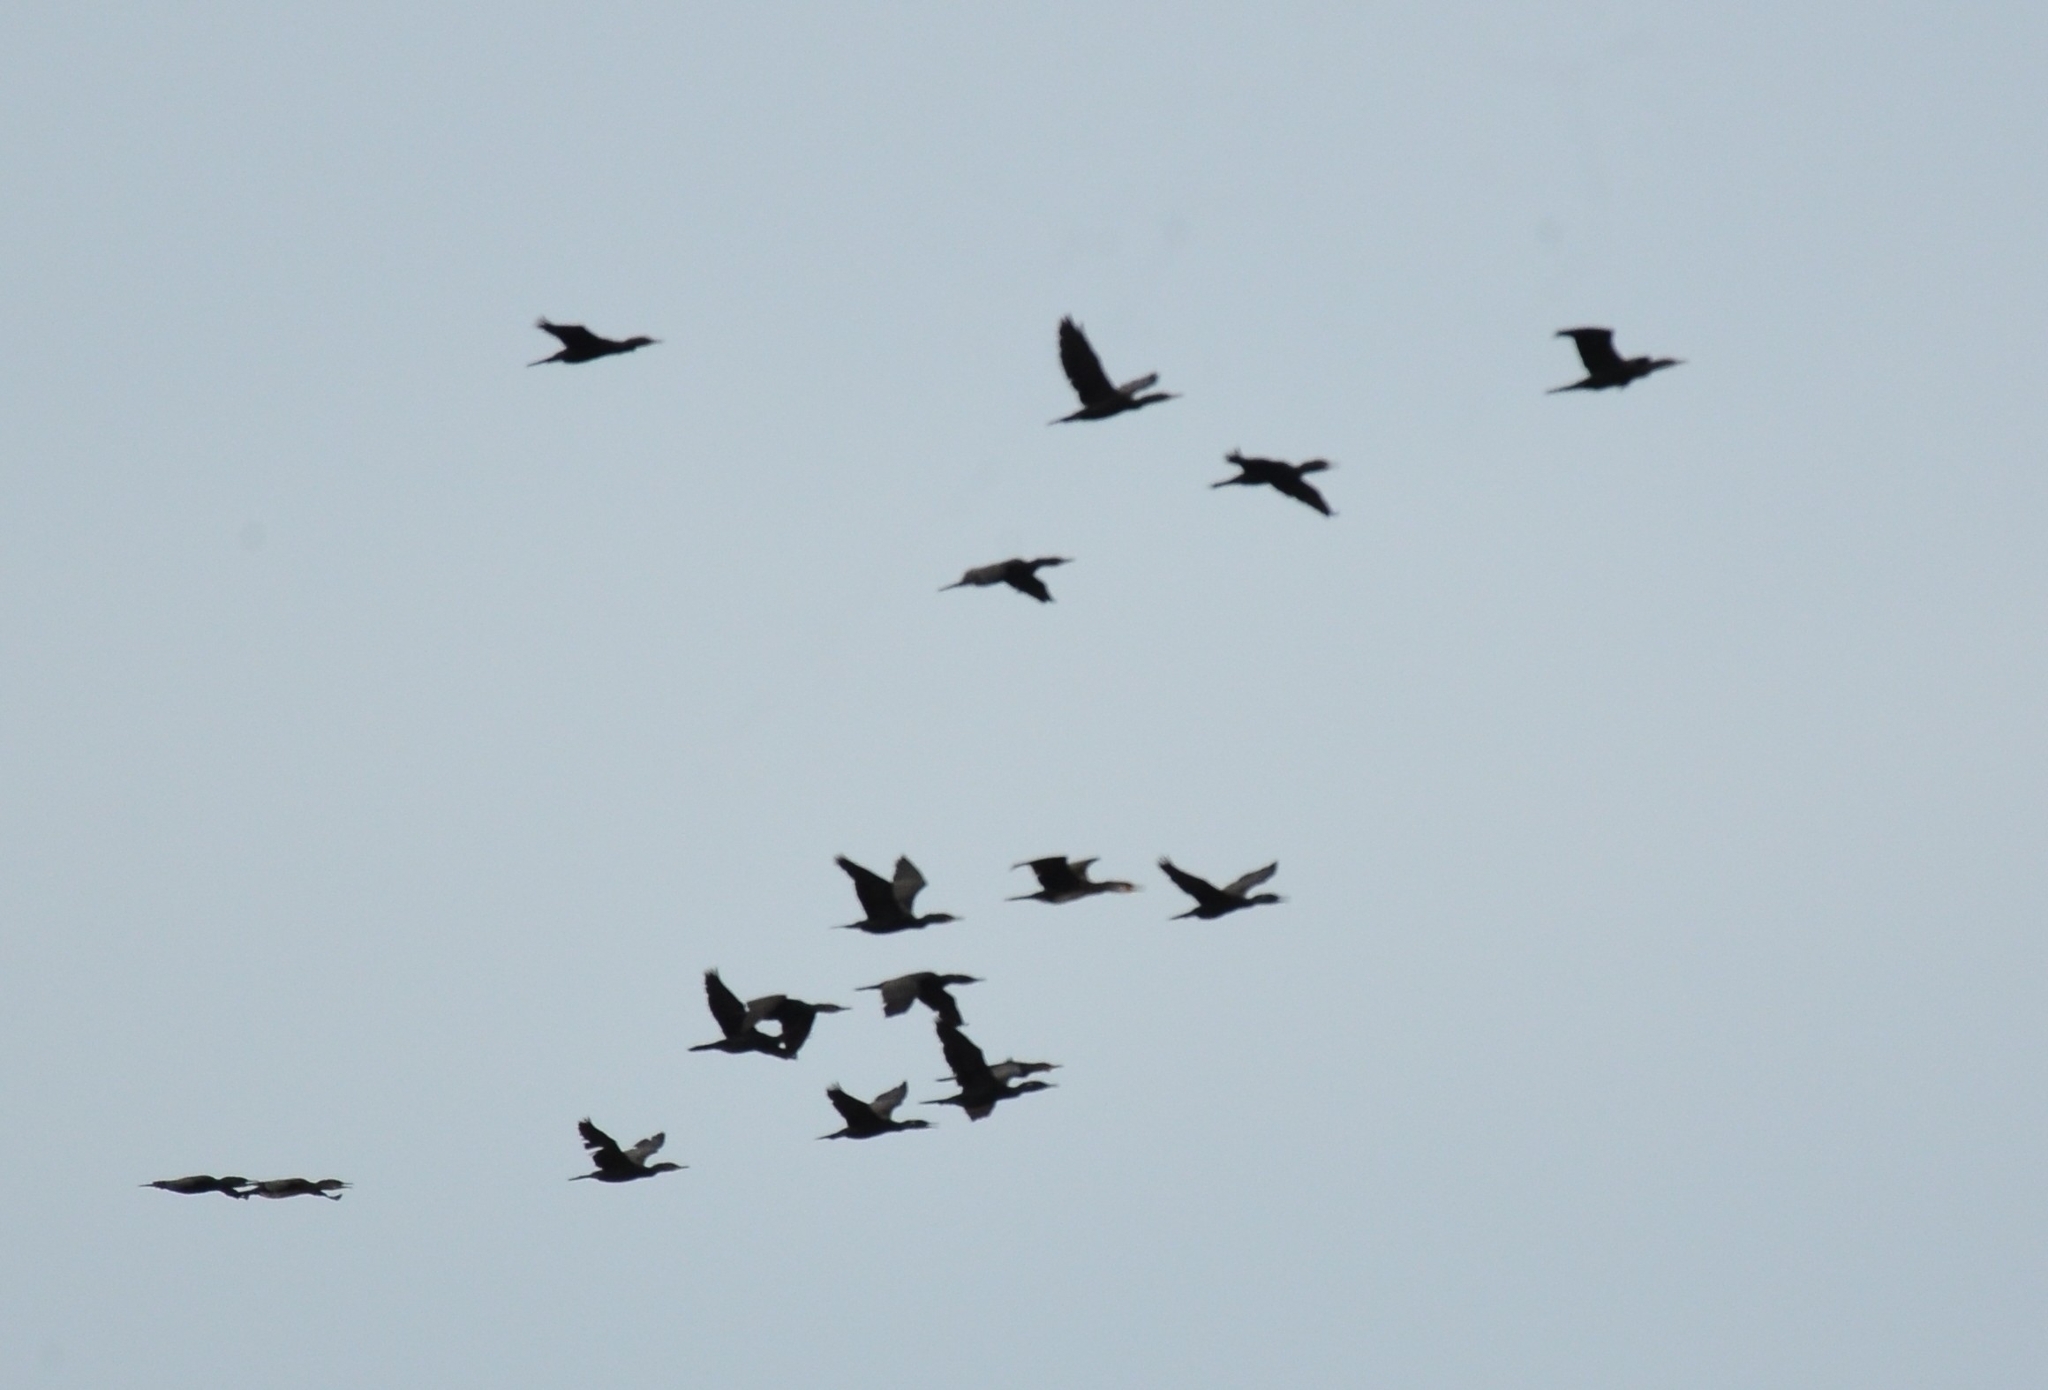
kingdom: Animalia
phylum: Chordata
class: Aves
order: Suliformes
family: Phalacrocoracidae
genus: Phalacrocorax
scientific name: Phalacrocorax fuscicollis
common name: Indian cormorant
